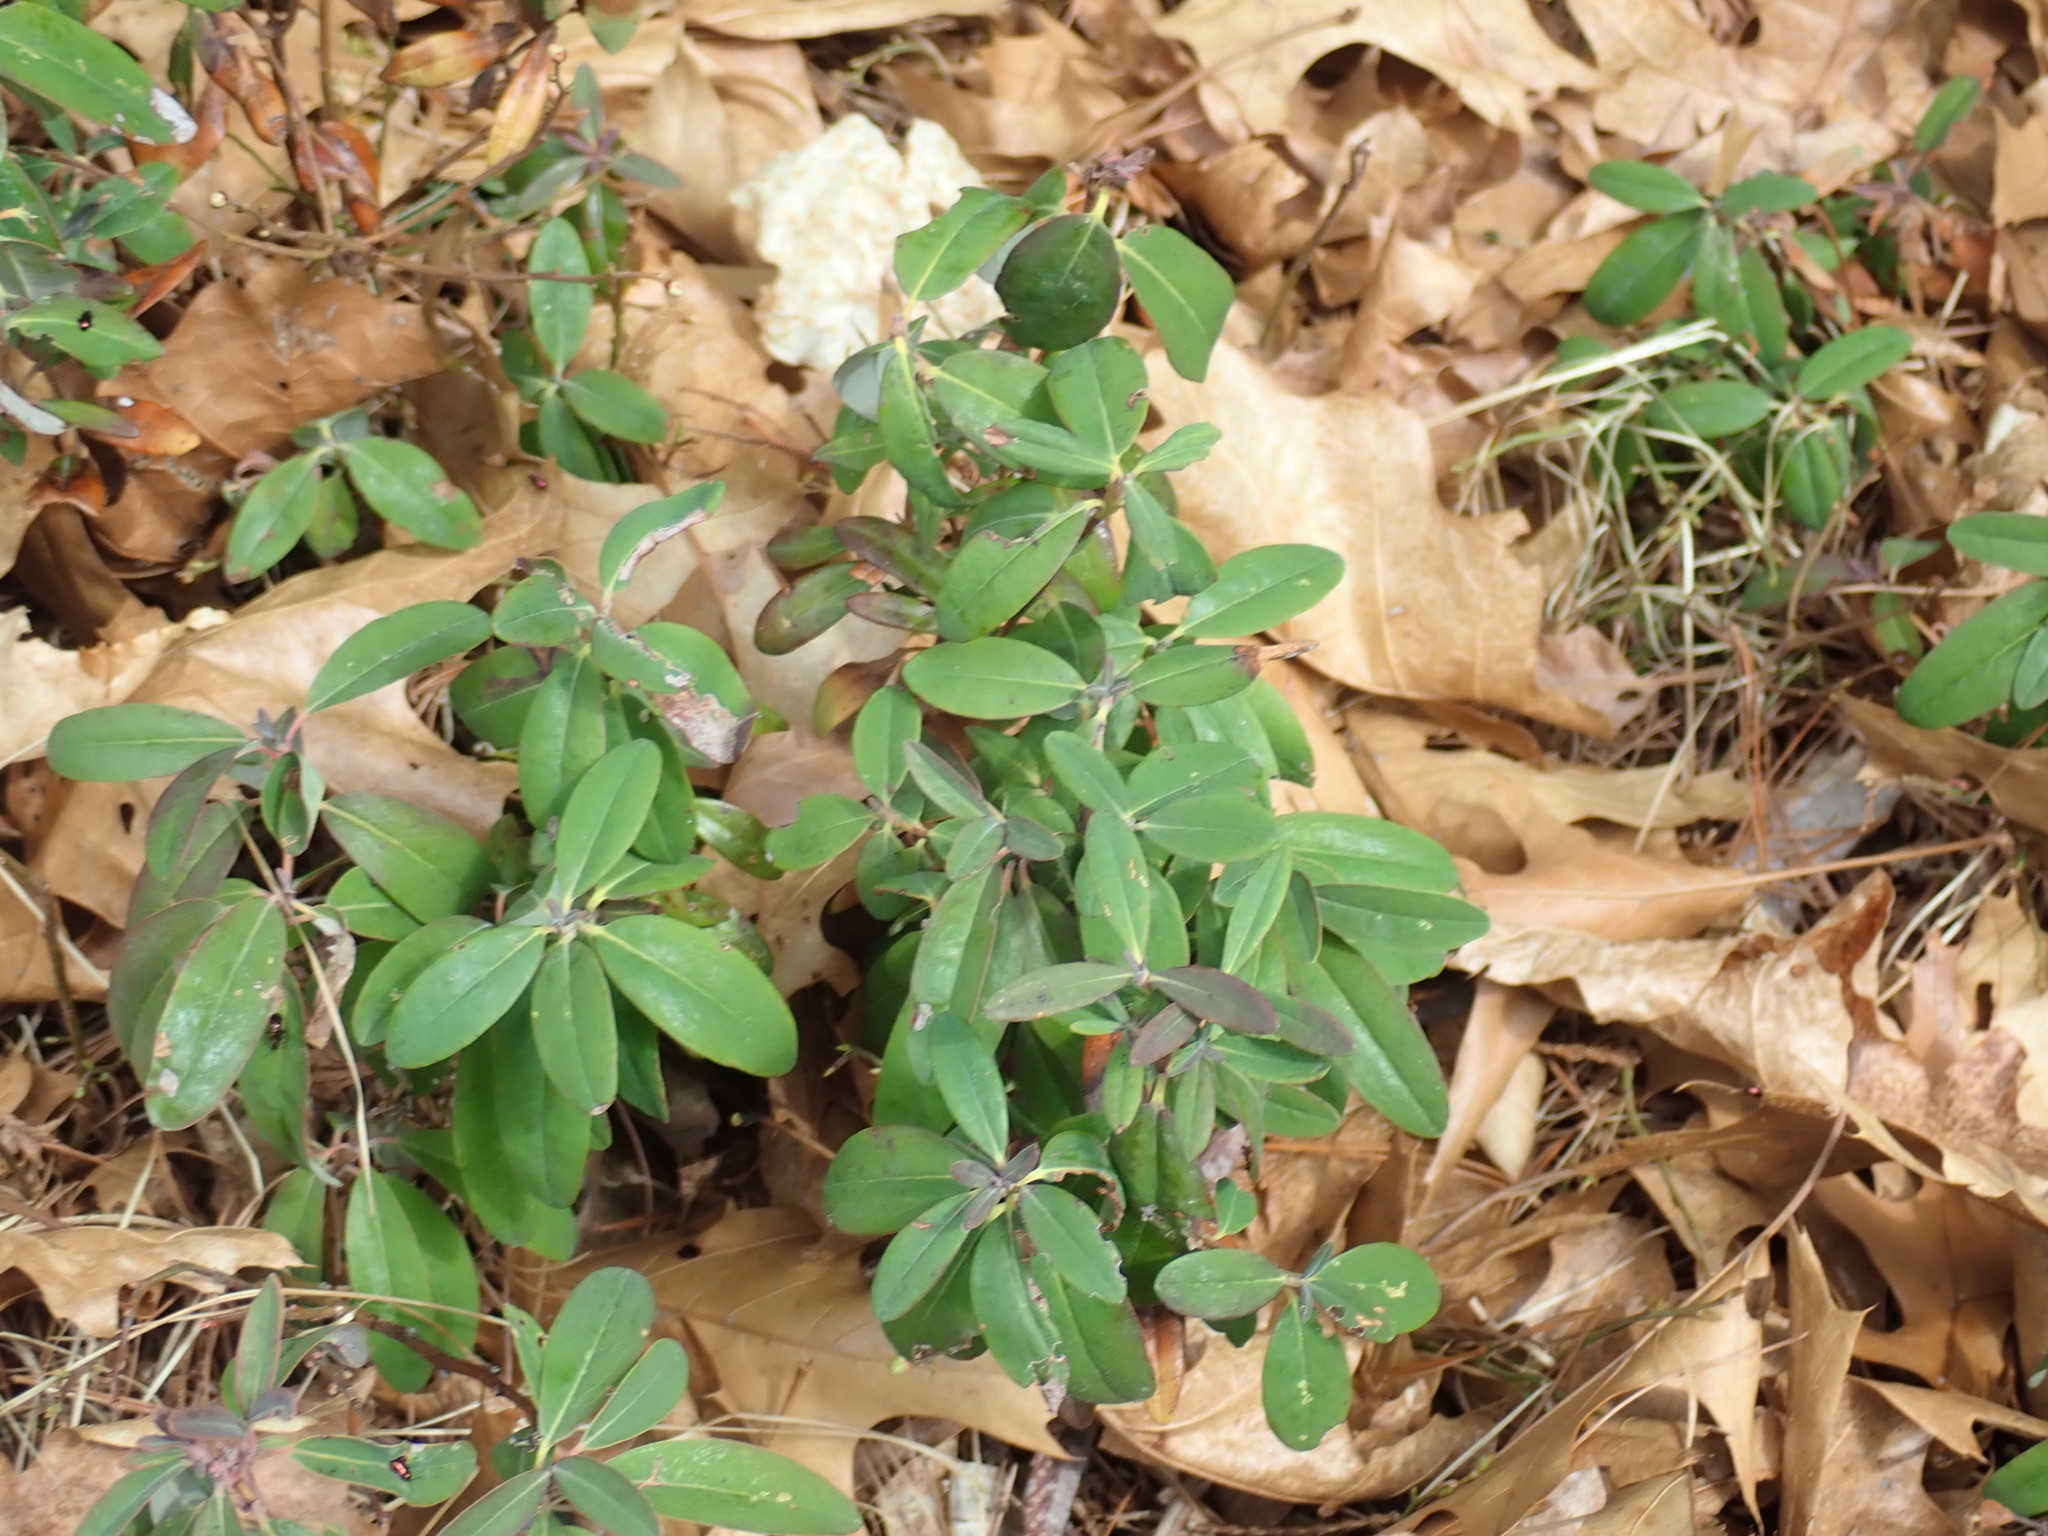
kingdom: Plantae
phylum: Tracheophyta
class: Magnoliopsida
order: Ericales
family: Ericaceae
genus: Kalmia
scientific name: Kalmia angustifolia
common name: Sheep-laurel
